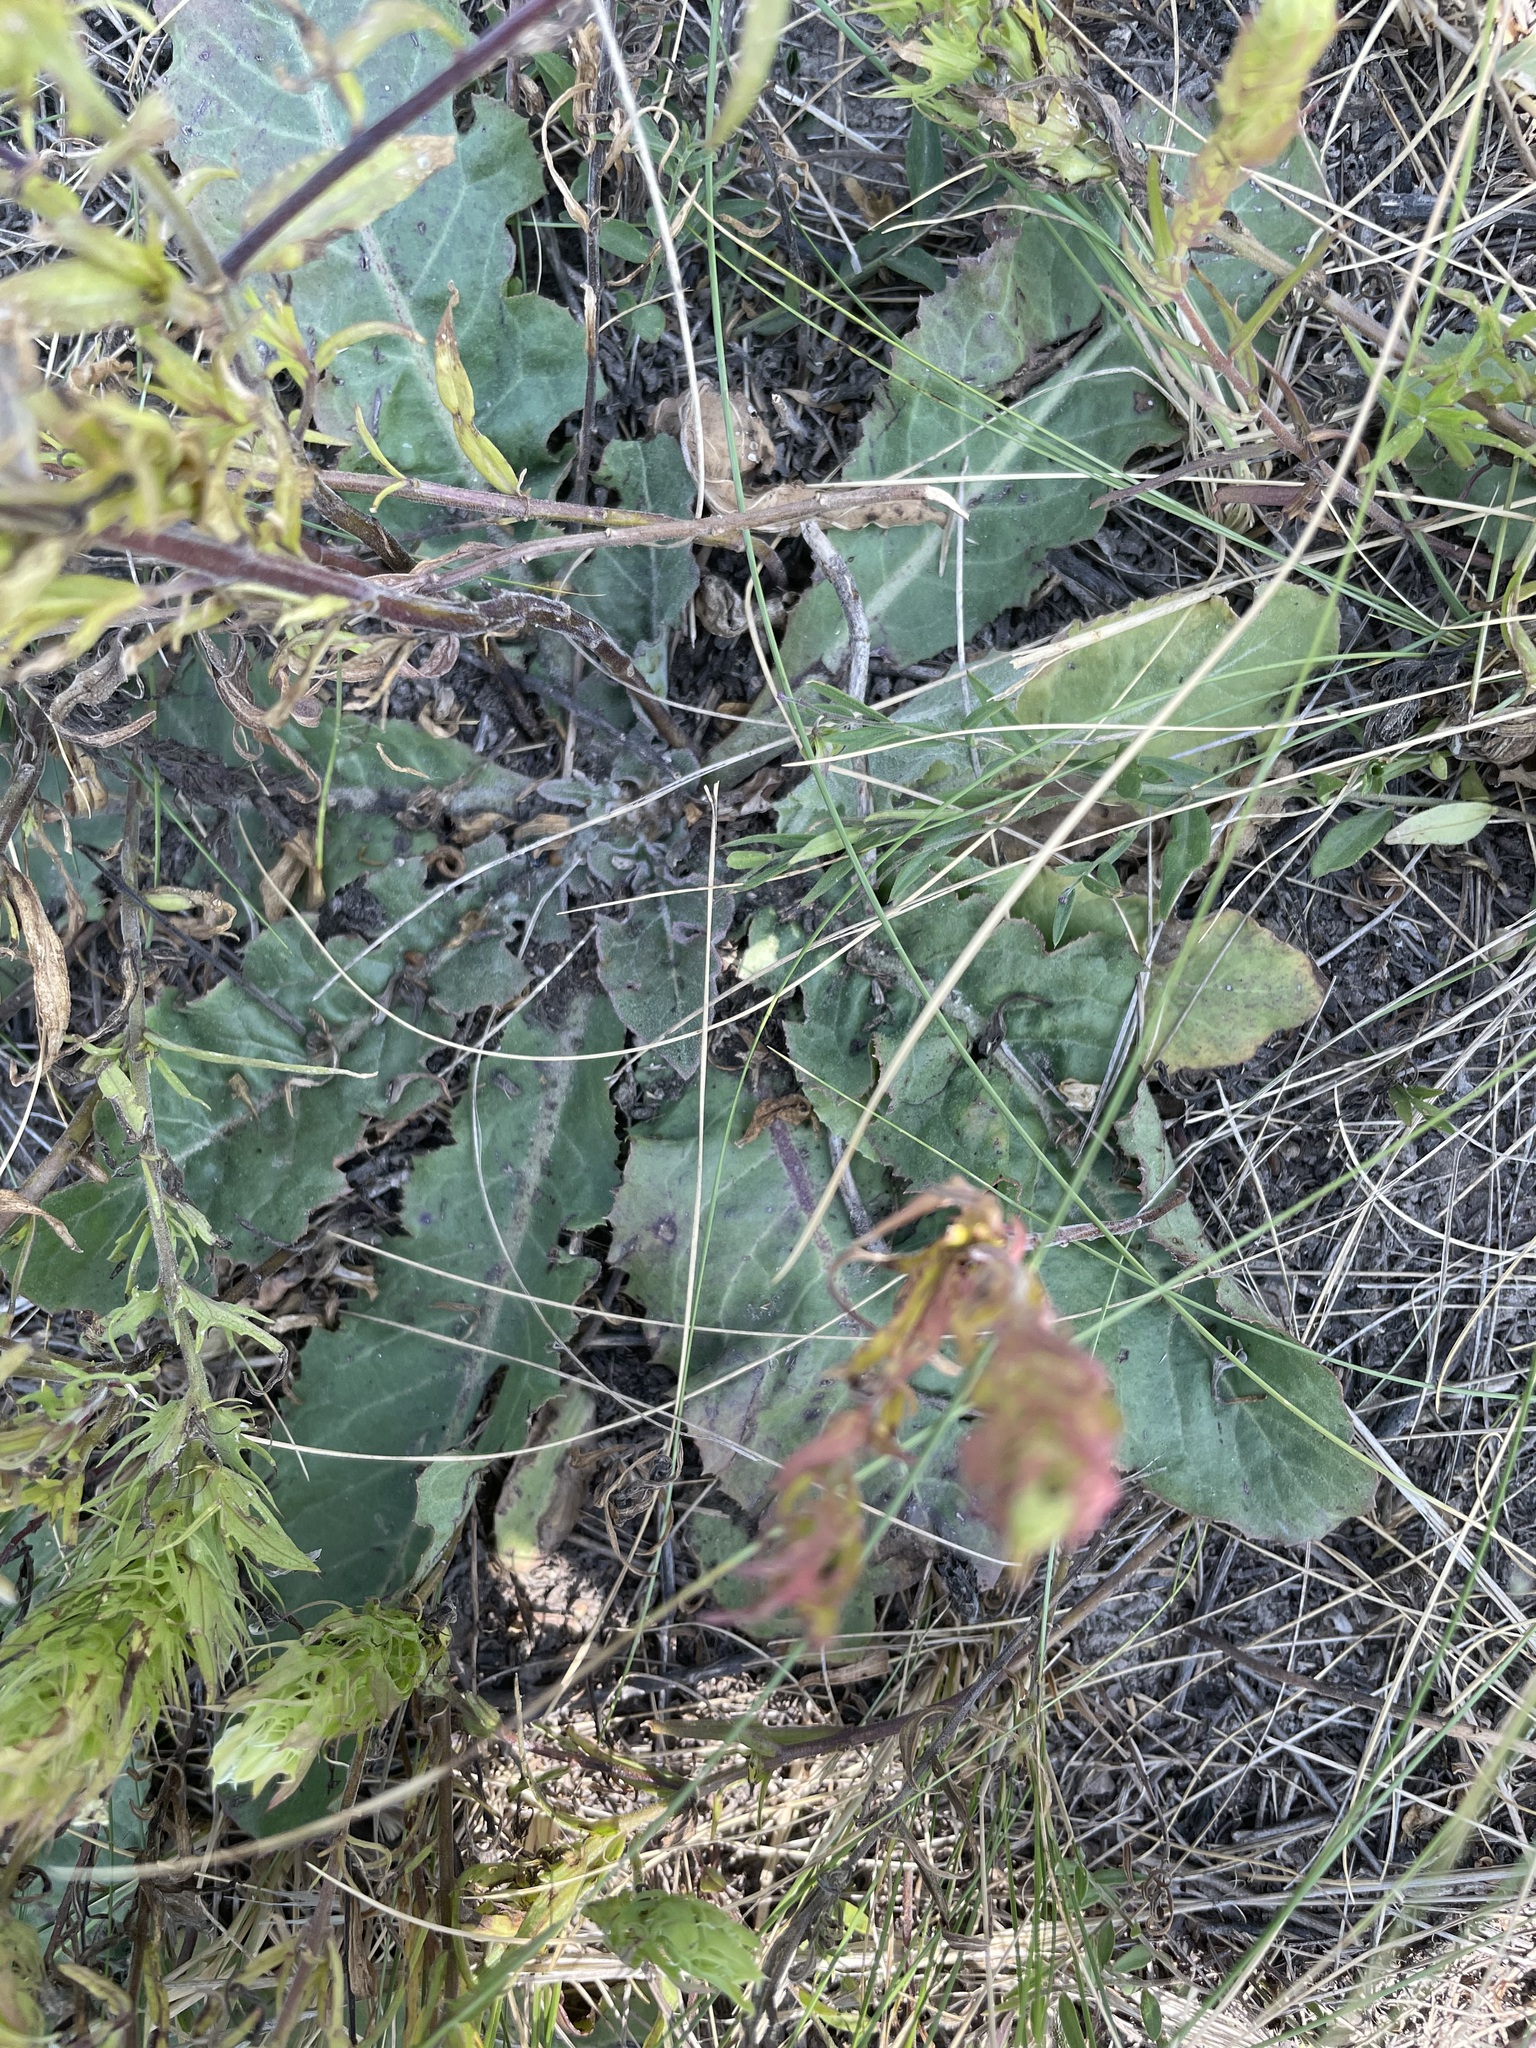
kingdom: Plantae
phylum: Tracheophyta
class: Magnoliopsida
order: Asterales
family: Asteraceae
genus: Taraxacum
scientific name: Taraxacum serotinum
